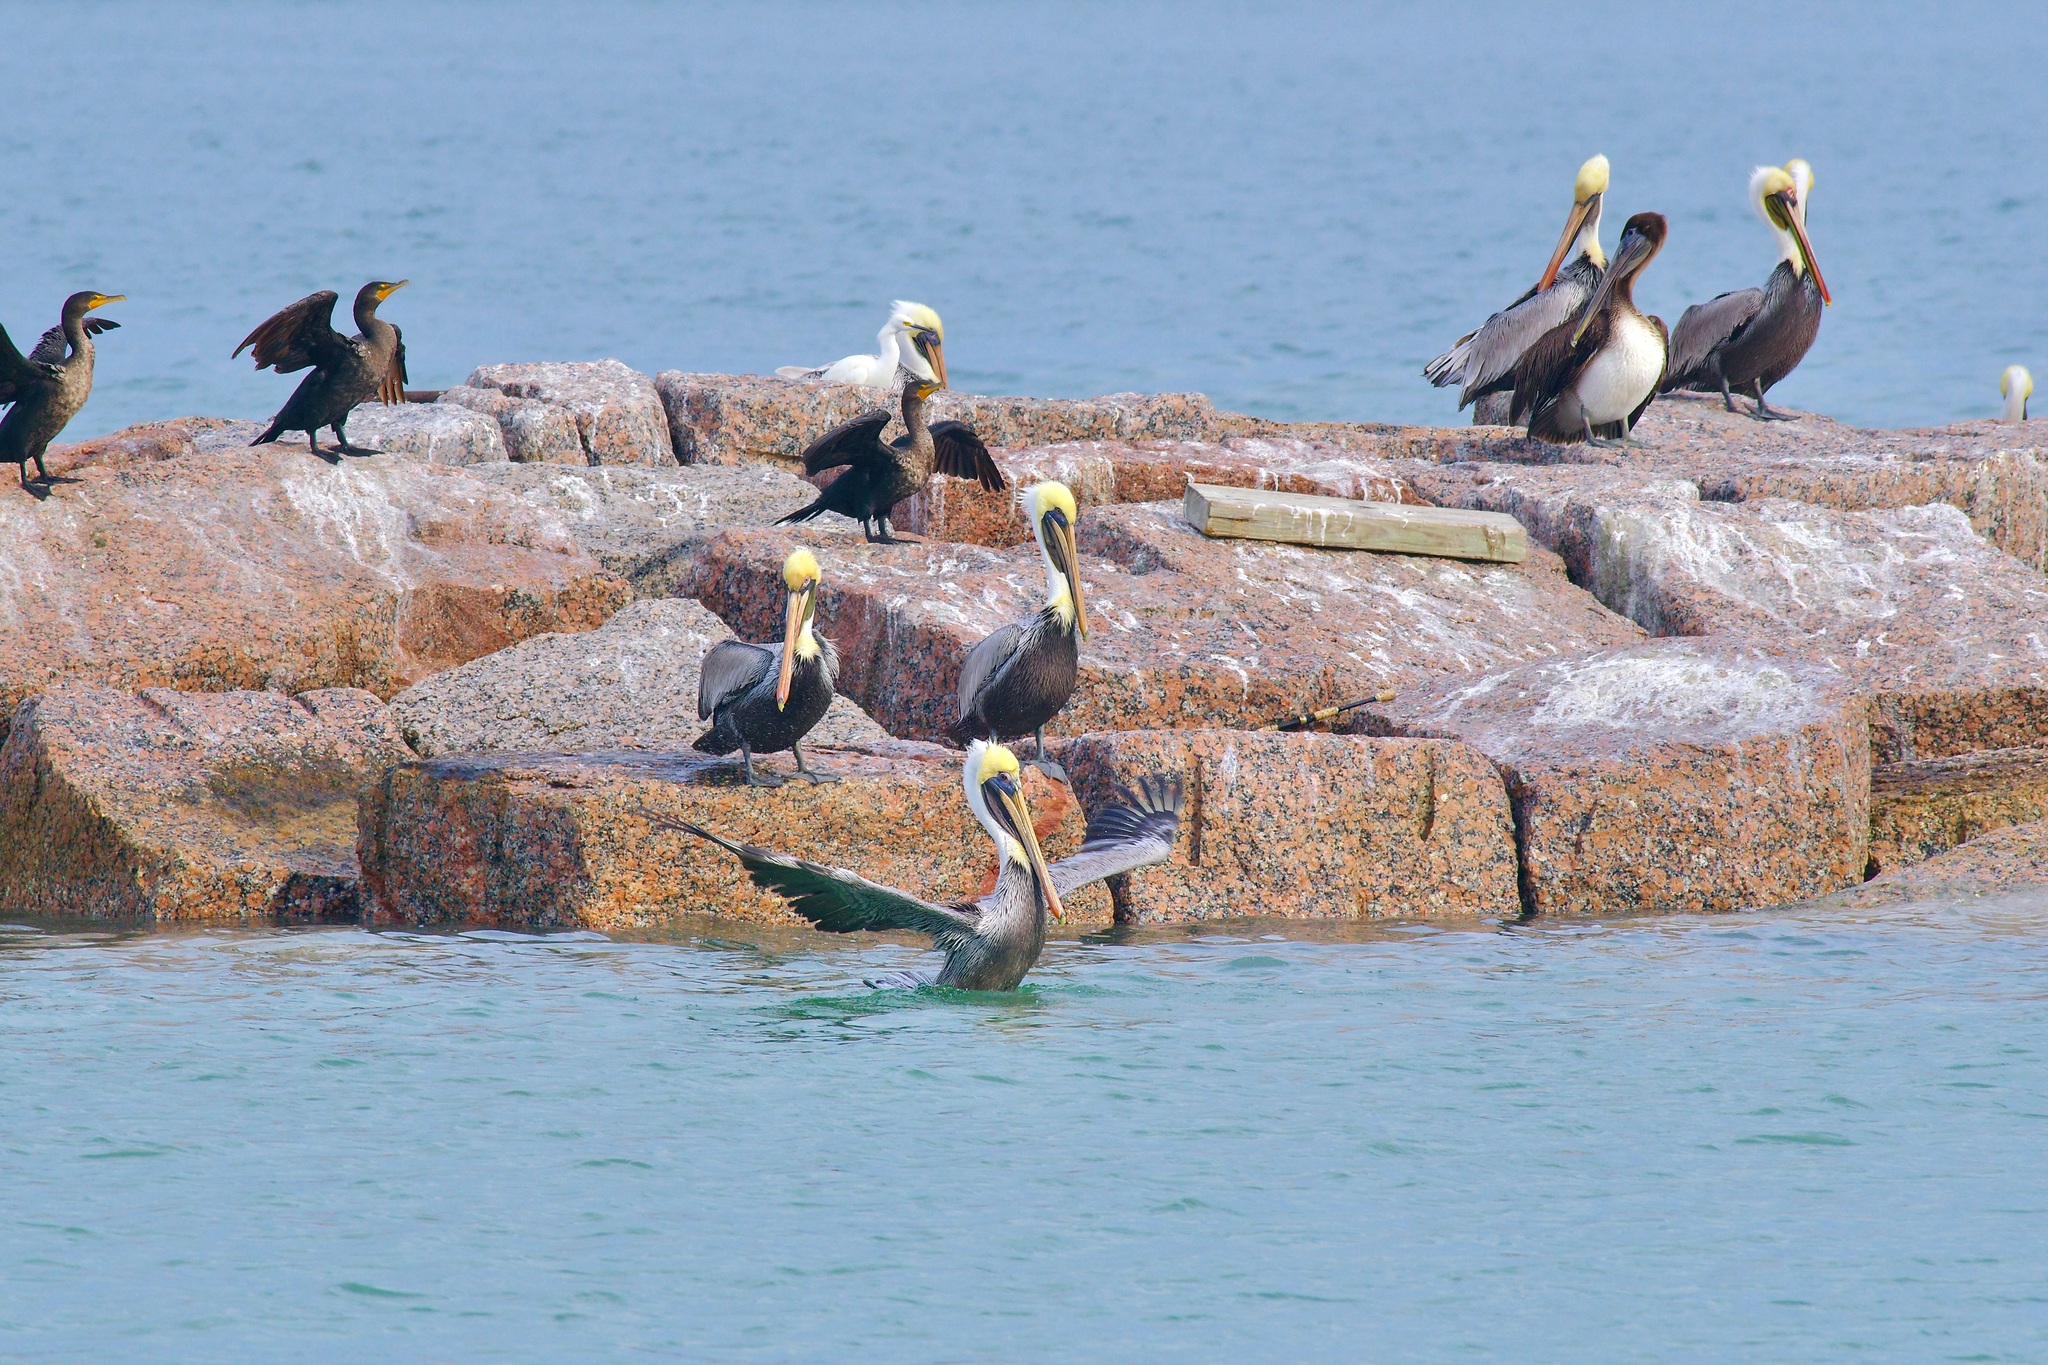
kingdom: Animalia
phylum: Chordata
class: Aves
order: Pelecaniformes
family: Pelecanidae
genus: Pelecanus
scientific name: Pelecanus occidentalis
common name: Brown pelican
